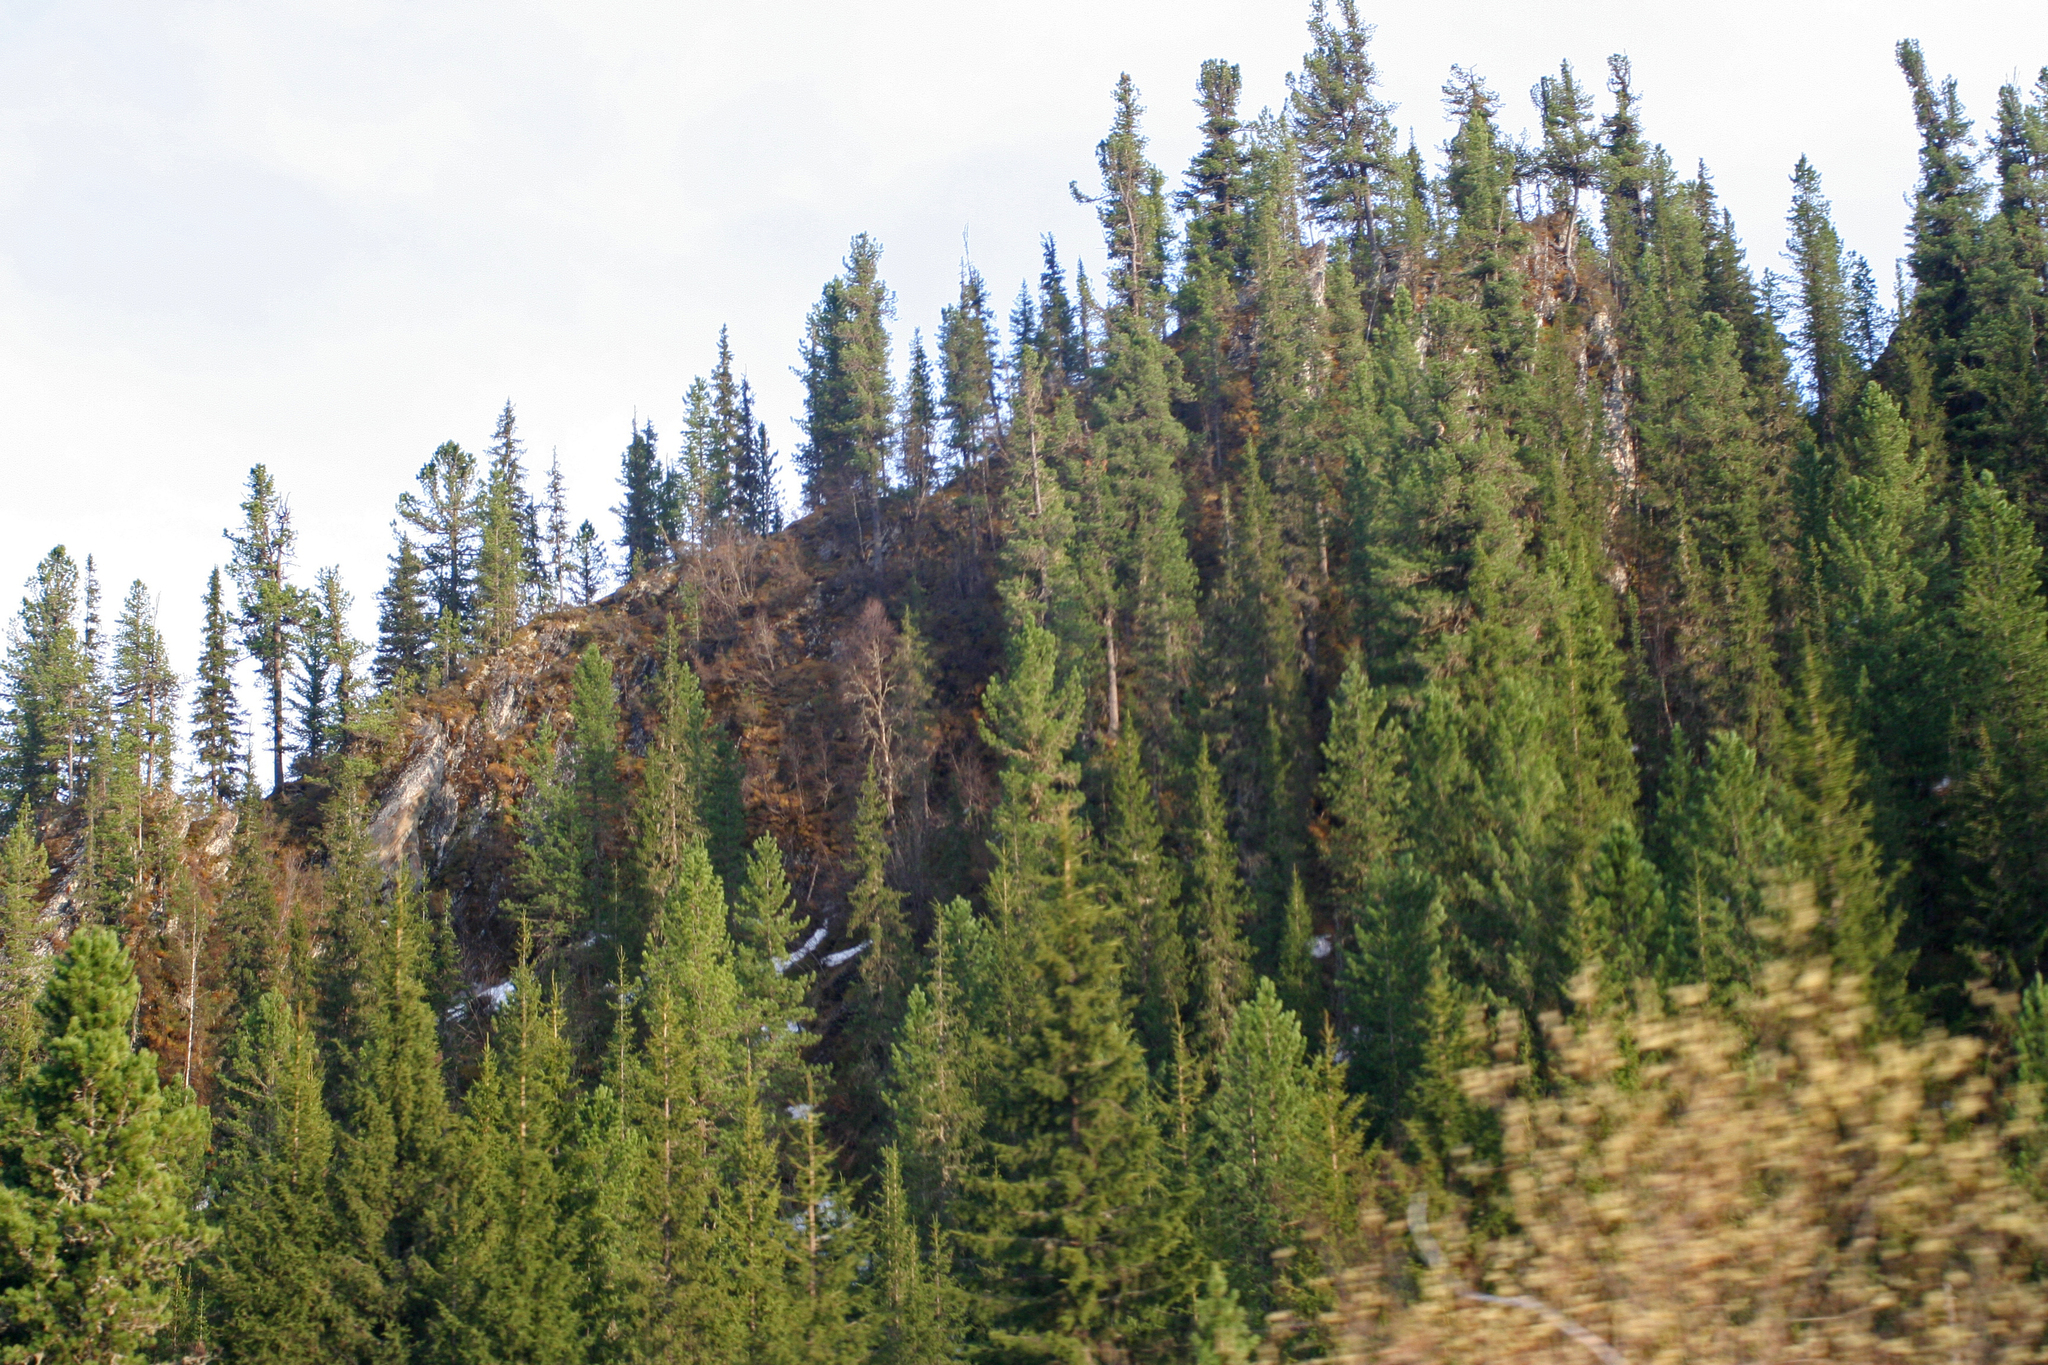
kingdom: Plantae
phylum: Tracheophyta
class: Pinopsida
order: Pinales
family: Pinaceae
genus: Pinus
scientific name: Pinus sibirica
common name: Siberian pine
